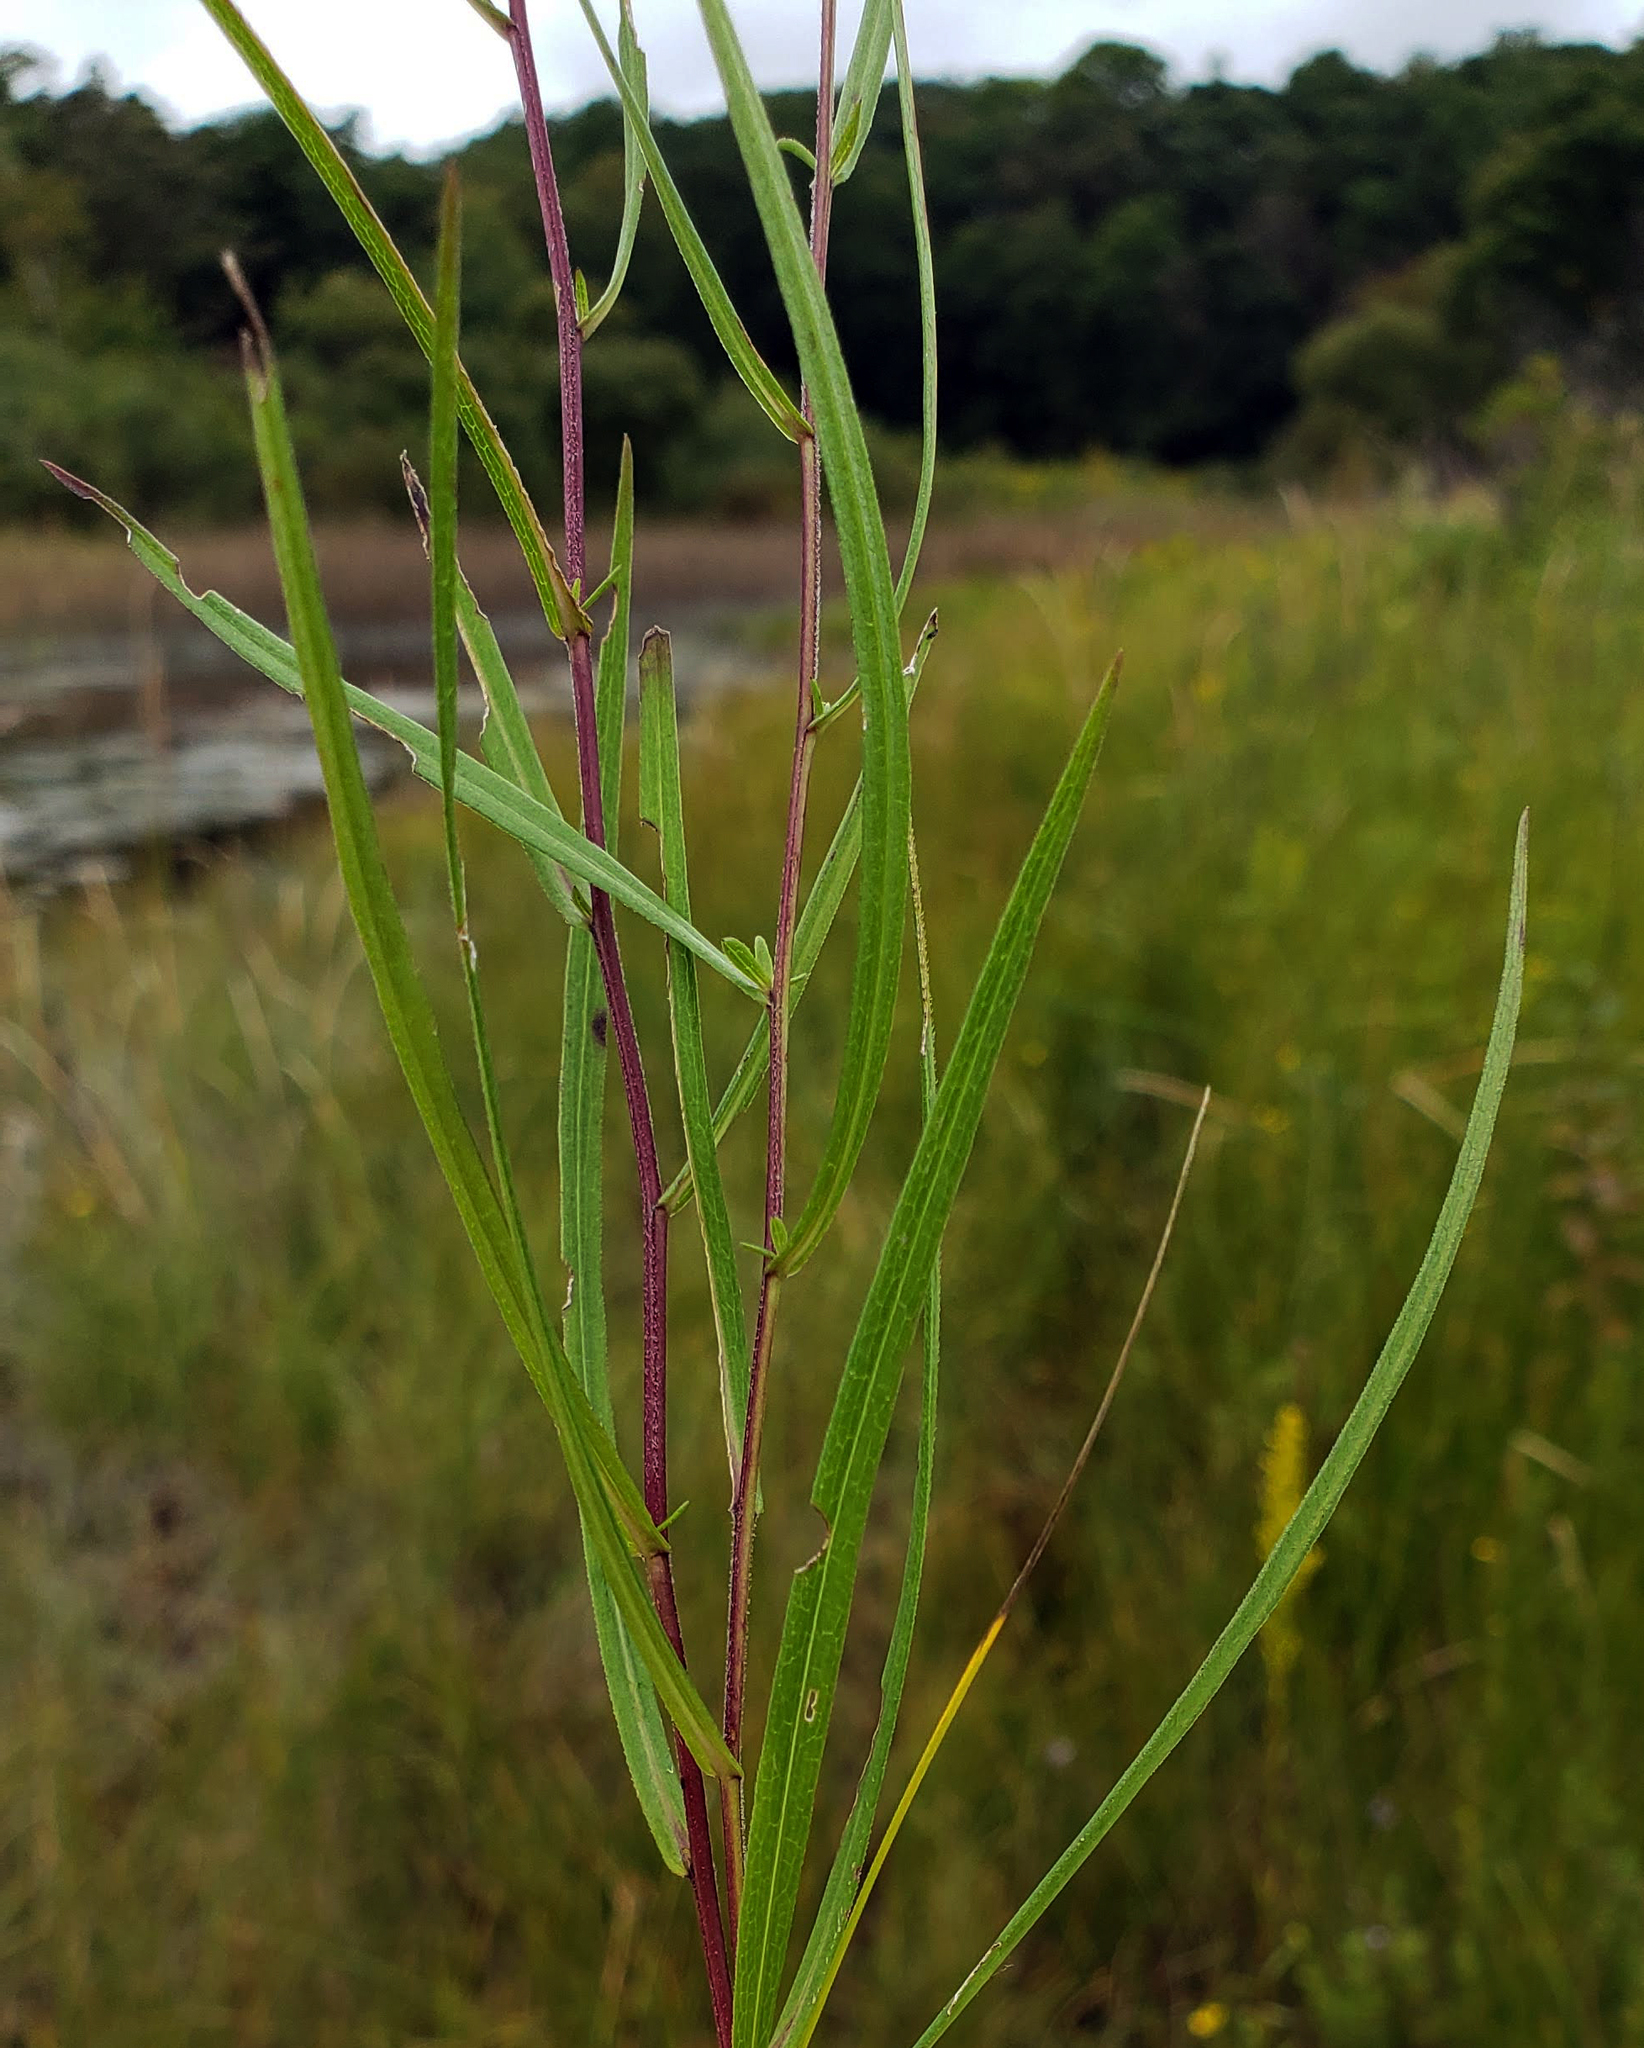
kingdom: Plantae
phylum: Tracheophyta
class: Magnoliopsida
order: Asterales
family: Asteraceae
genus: Symphyotrichum
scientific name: Symphyotrichum boreale
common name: Northern bog aster
